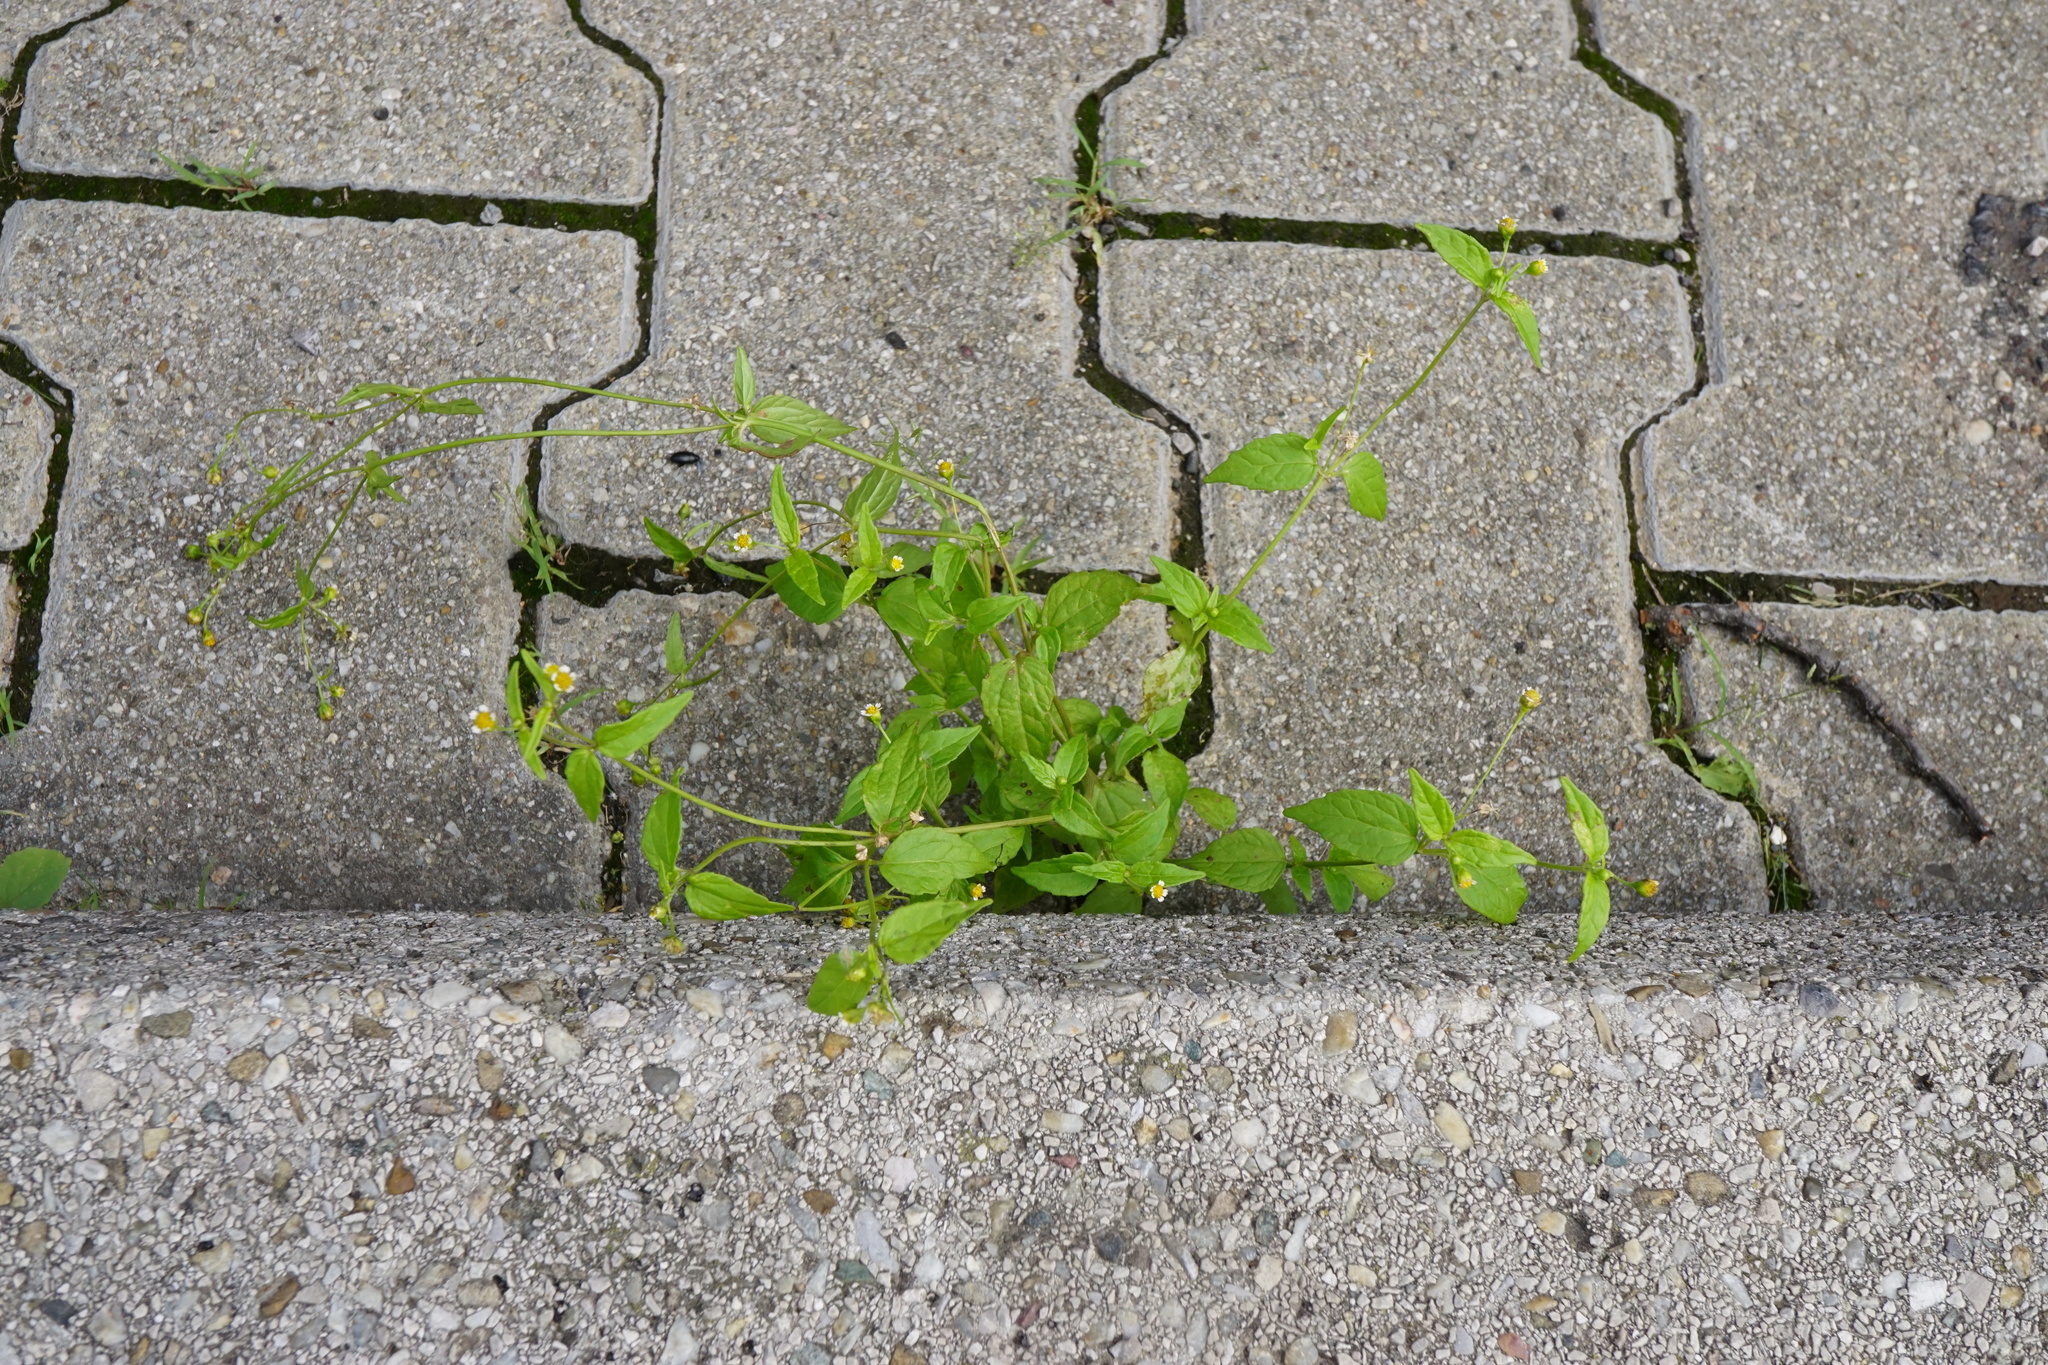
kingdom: Plantae
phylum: Tracheophyta
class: Magnoliopsida
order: Asterales
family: Asteraceae
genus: Galinsoga
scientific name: Galinsoga parviflora
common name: Gallant soldier
